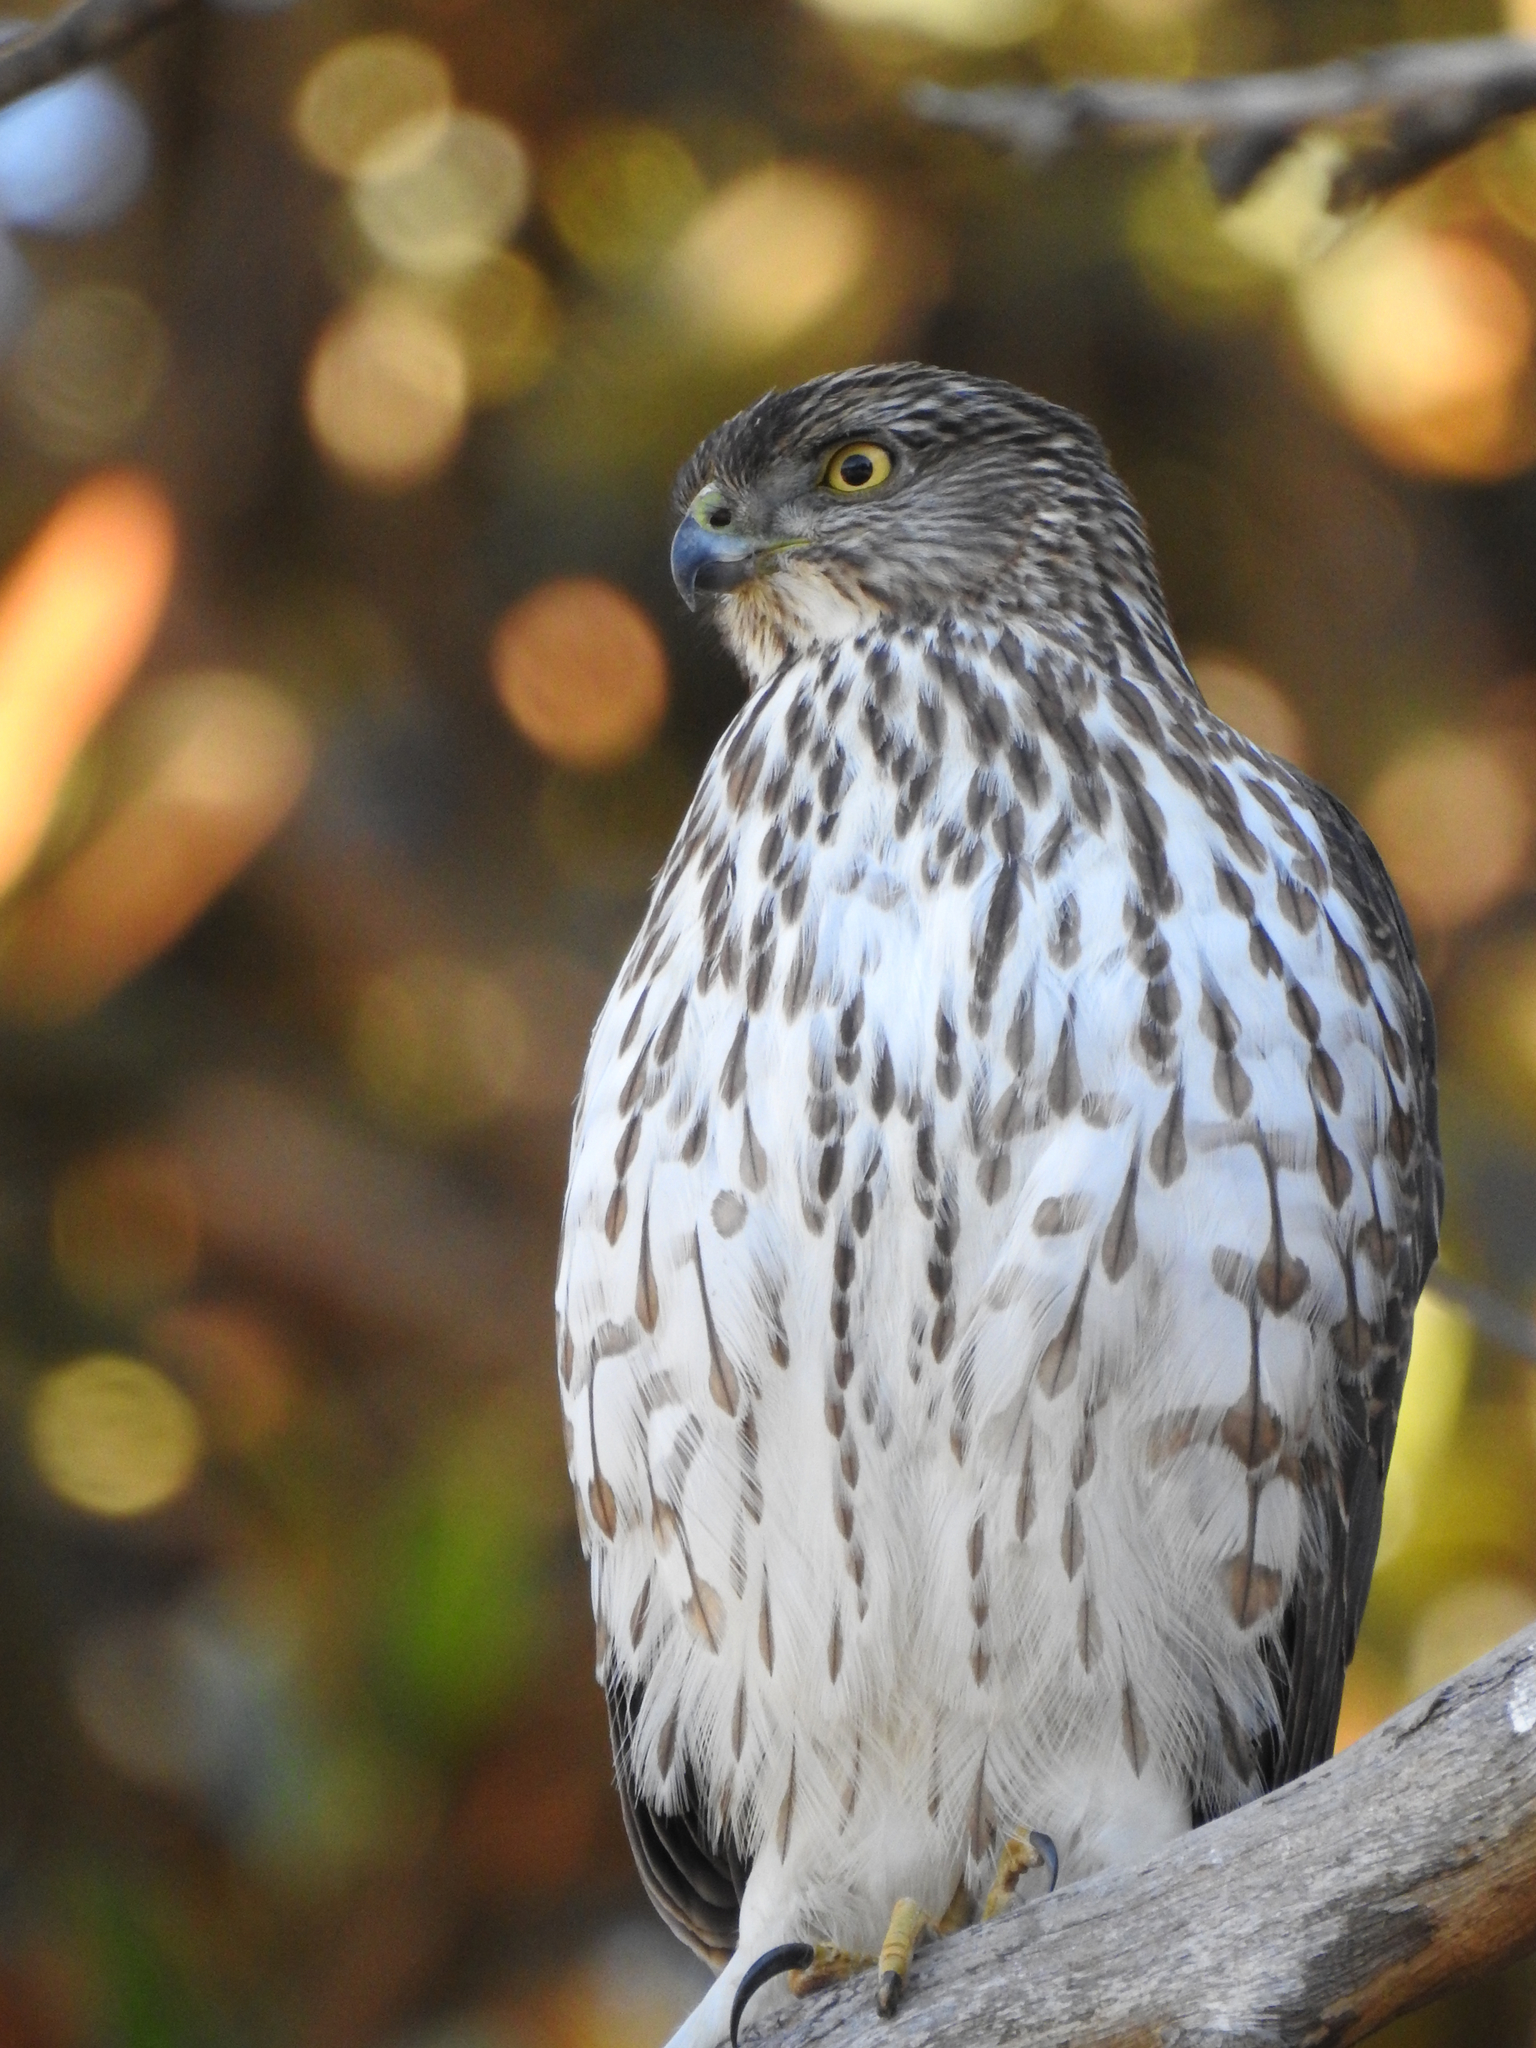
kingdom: Animalia
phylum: Chordata
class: Aves
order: Accipitriformes
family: Accipitridae
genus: Accipiter
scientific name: Accipiter cooperii
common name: Cooper's hawk
